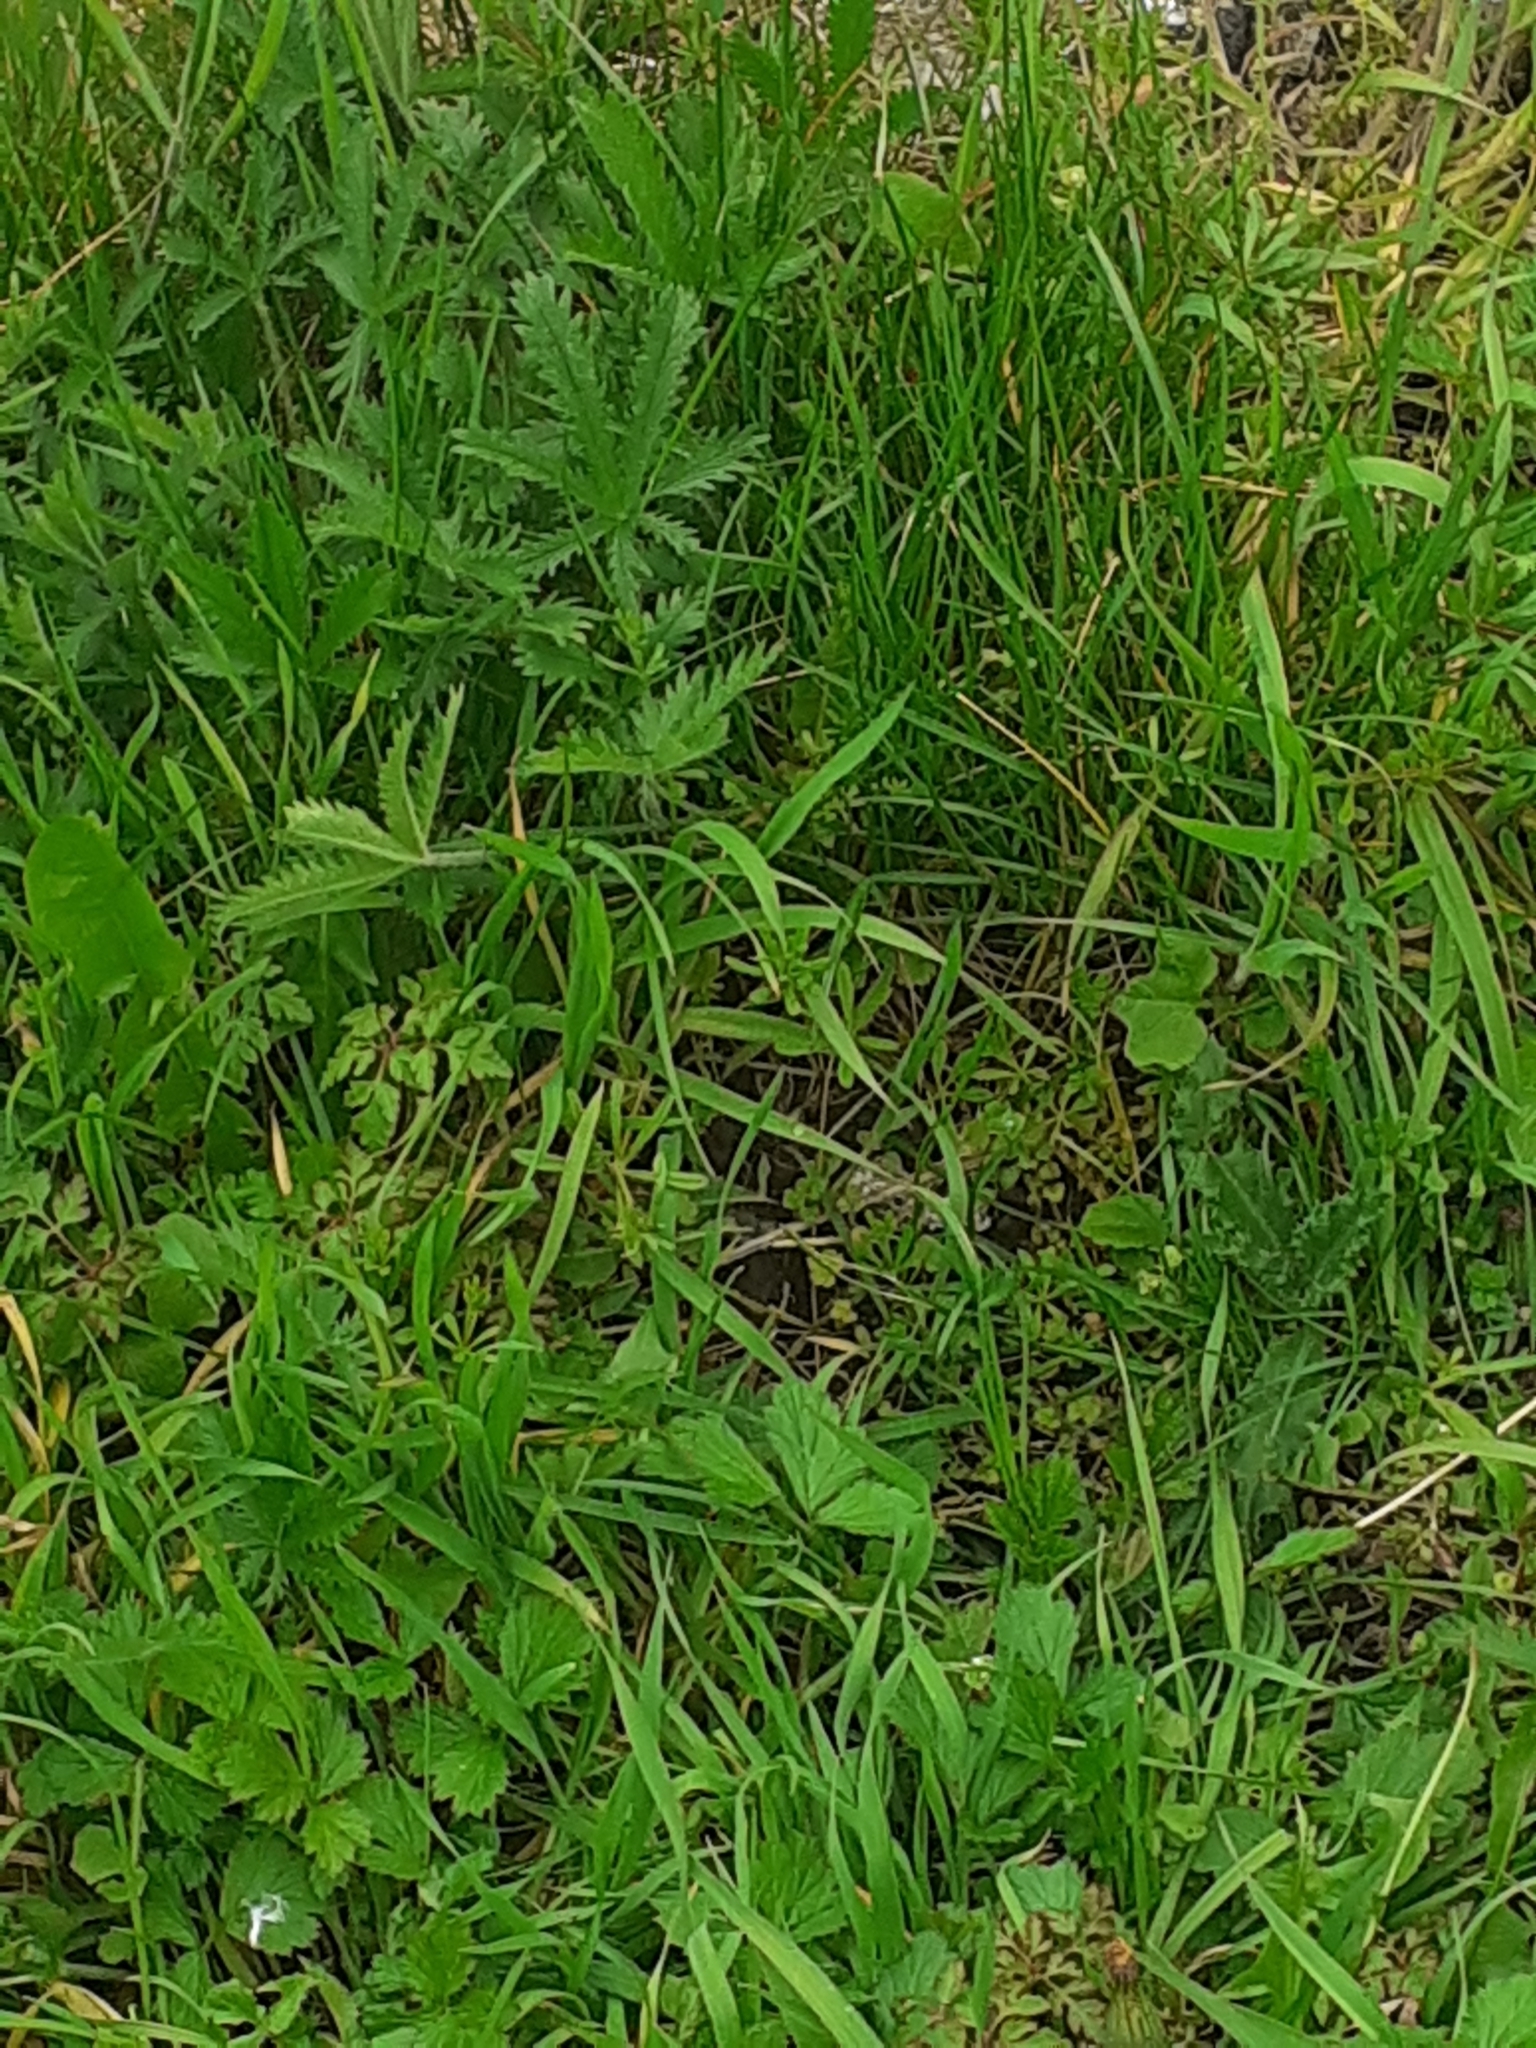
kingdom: Plantae
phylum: Tracheophyta
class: Magnoliopsida
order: Rosales
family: Rosaceae
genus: Potentilla
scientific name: Potentilla recta
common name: Sulphur cinquefoil
